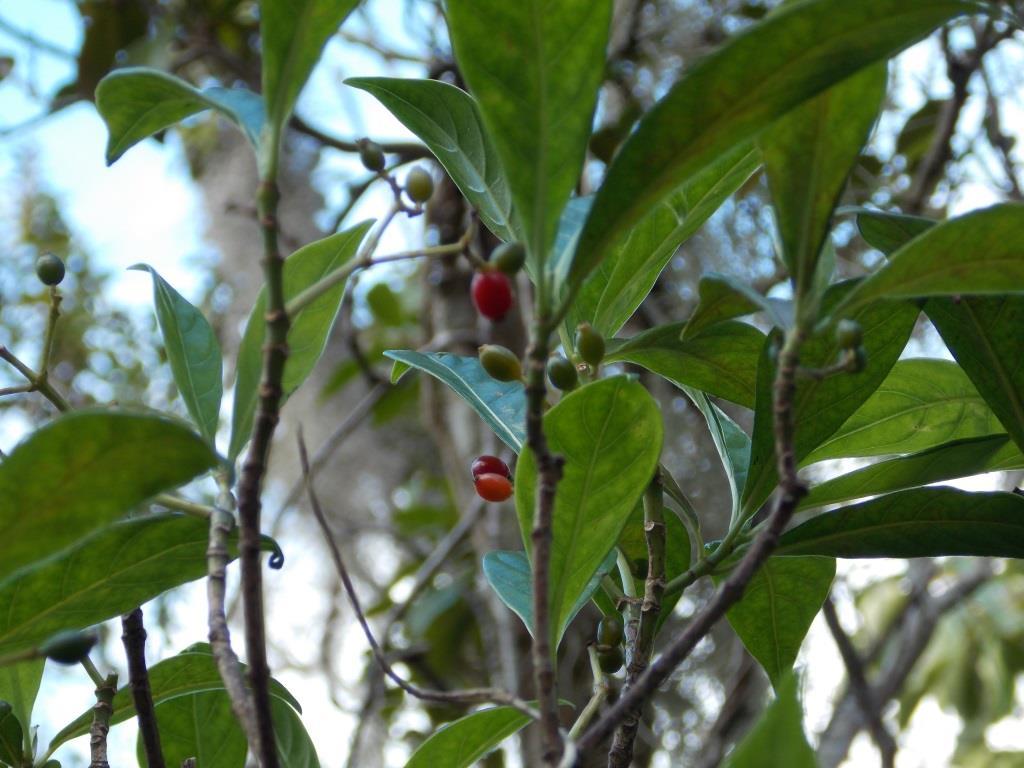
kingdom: Plantae
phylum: Tracheophyta
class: Magnoliopsida
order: Gentianales
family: Rubiaceae
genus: Psychotria
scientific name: Psychotria ligustrifolia
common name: Bahama wild coffee
